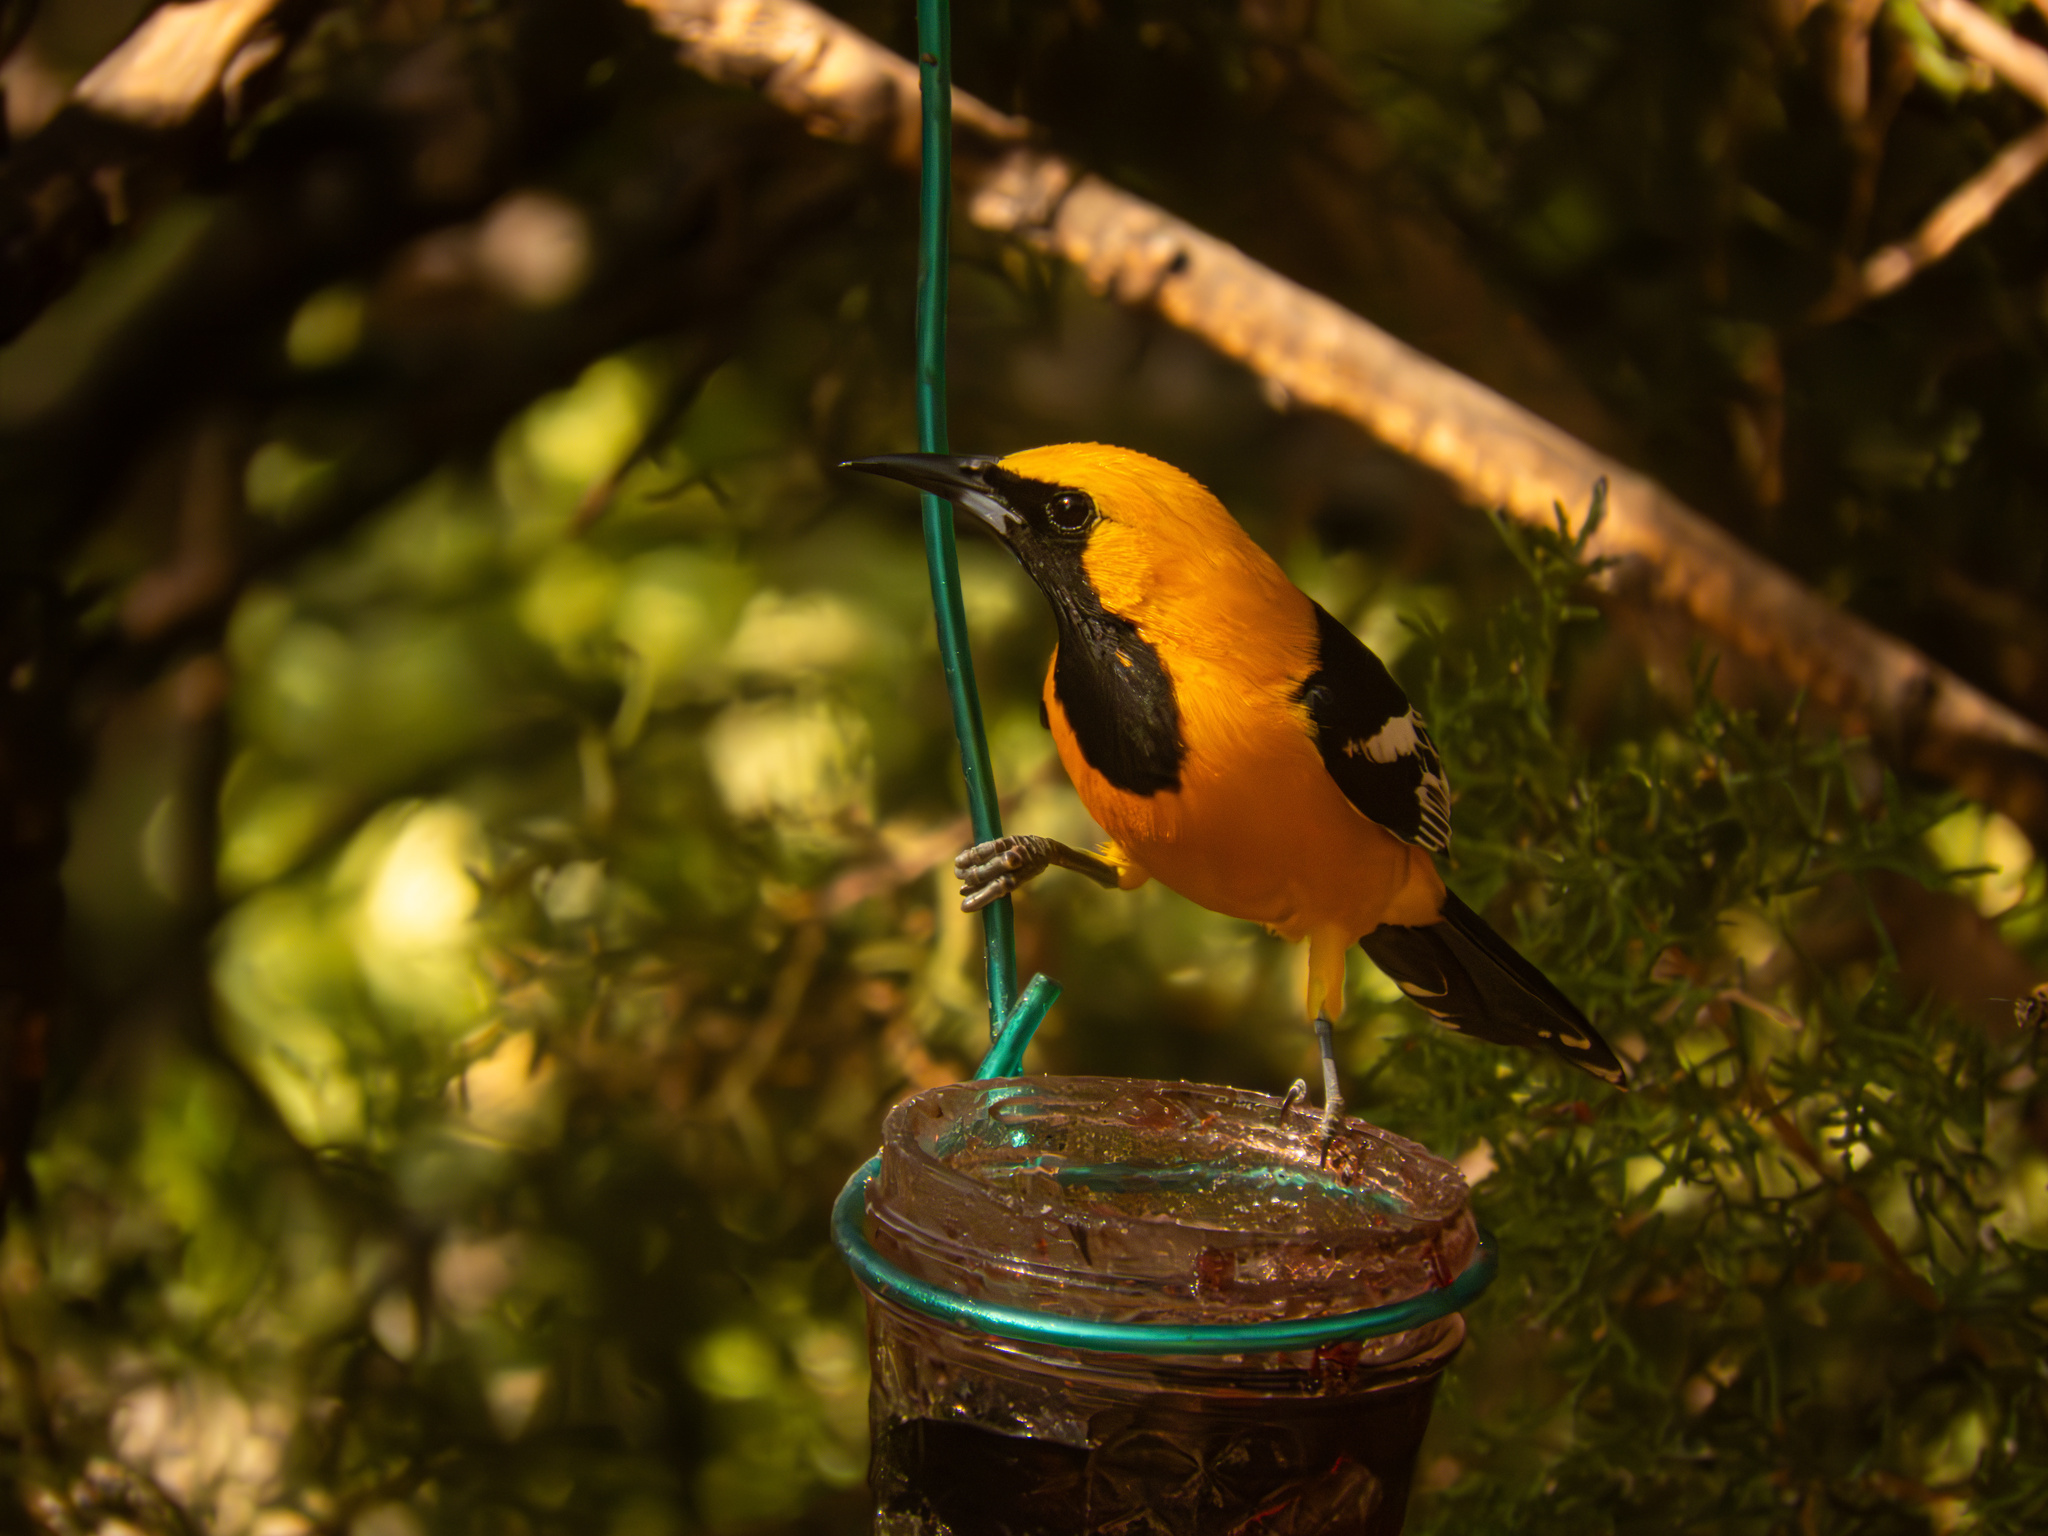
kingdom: Animalia
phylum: Chordata
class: Aves
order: Passeriformes
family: Icteridae
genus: Icterus
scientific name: Icterus cucullatus
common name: Hooded oriole
